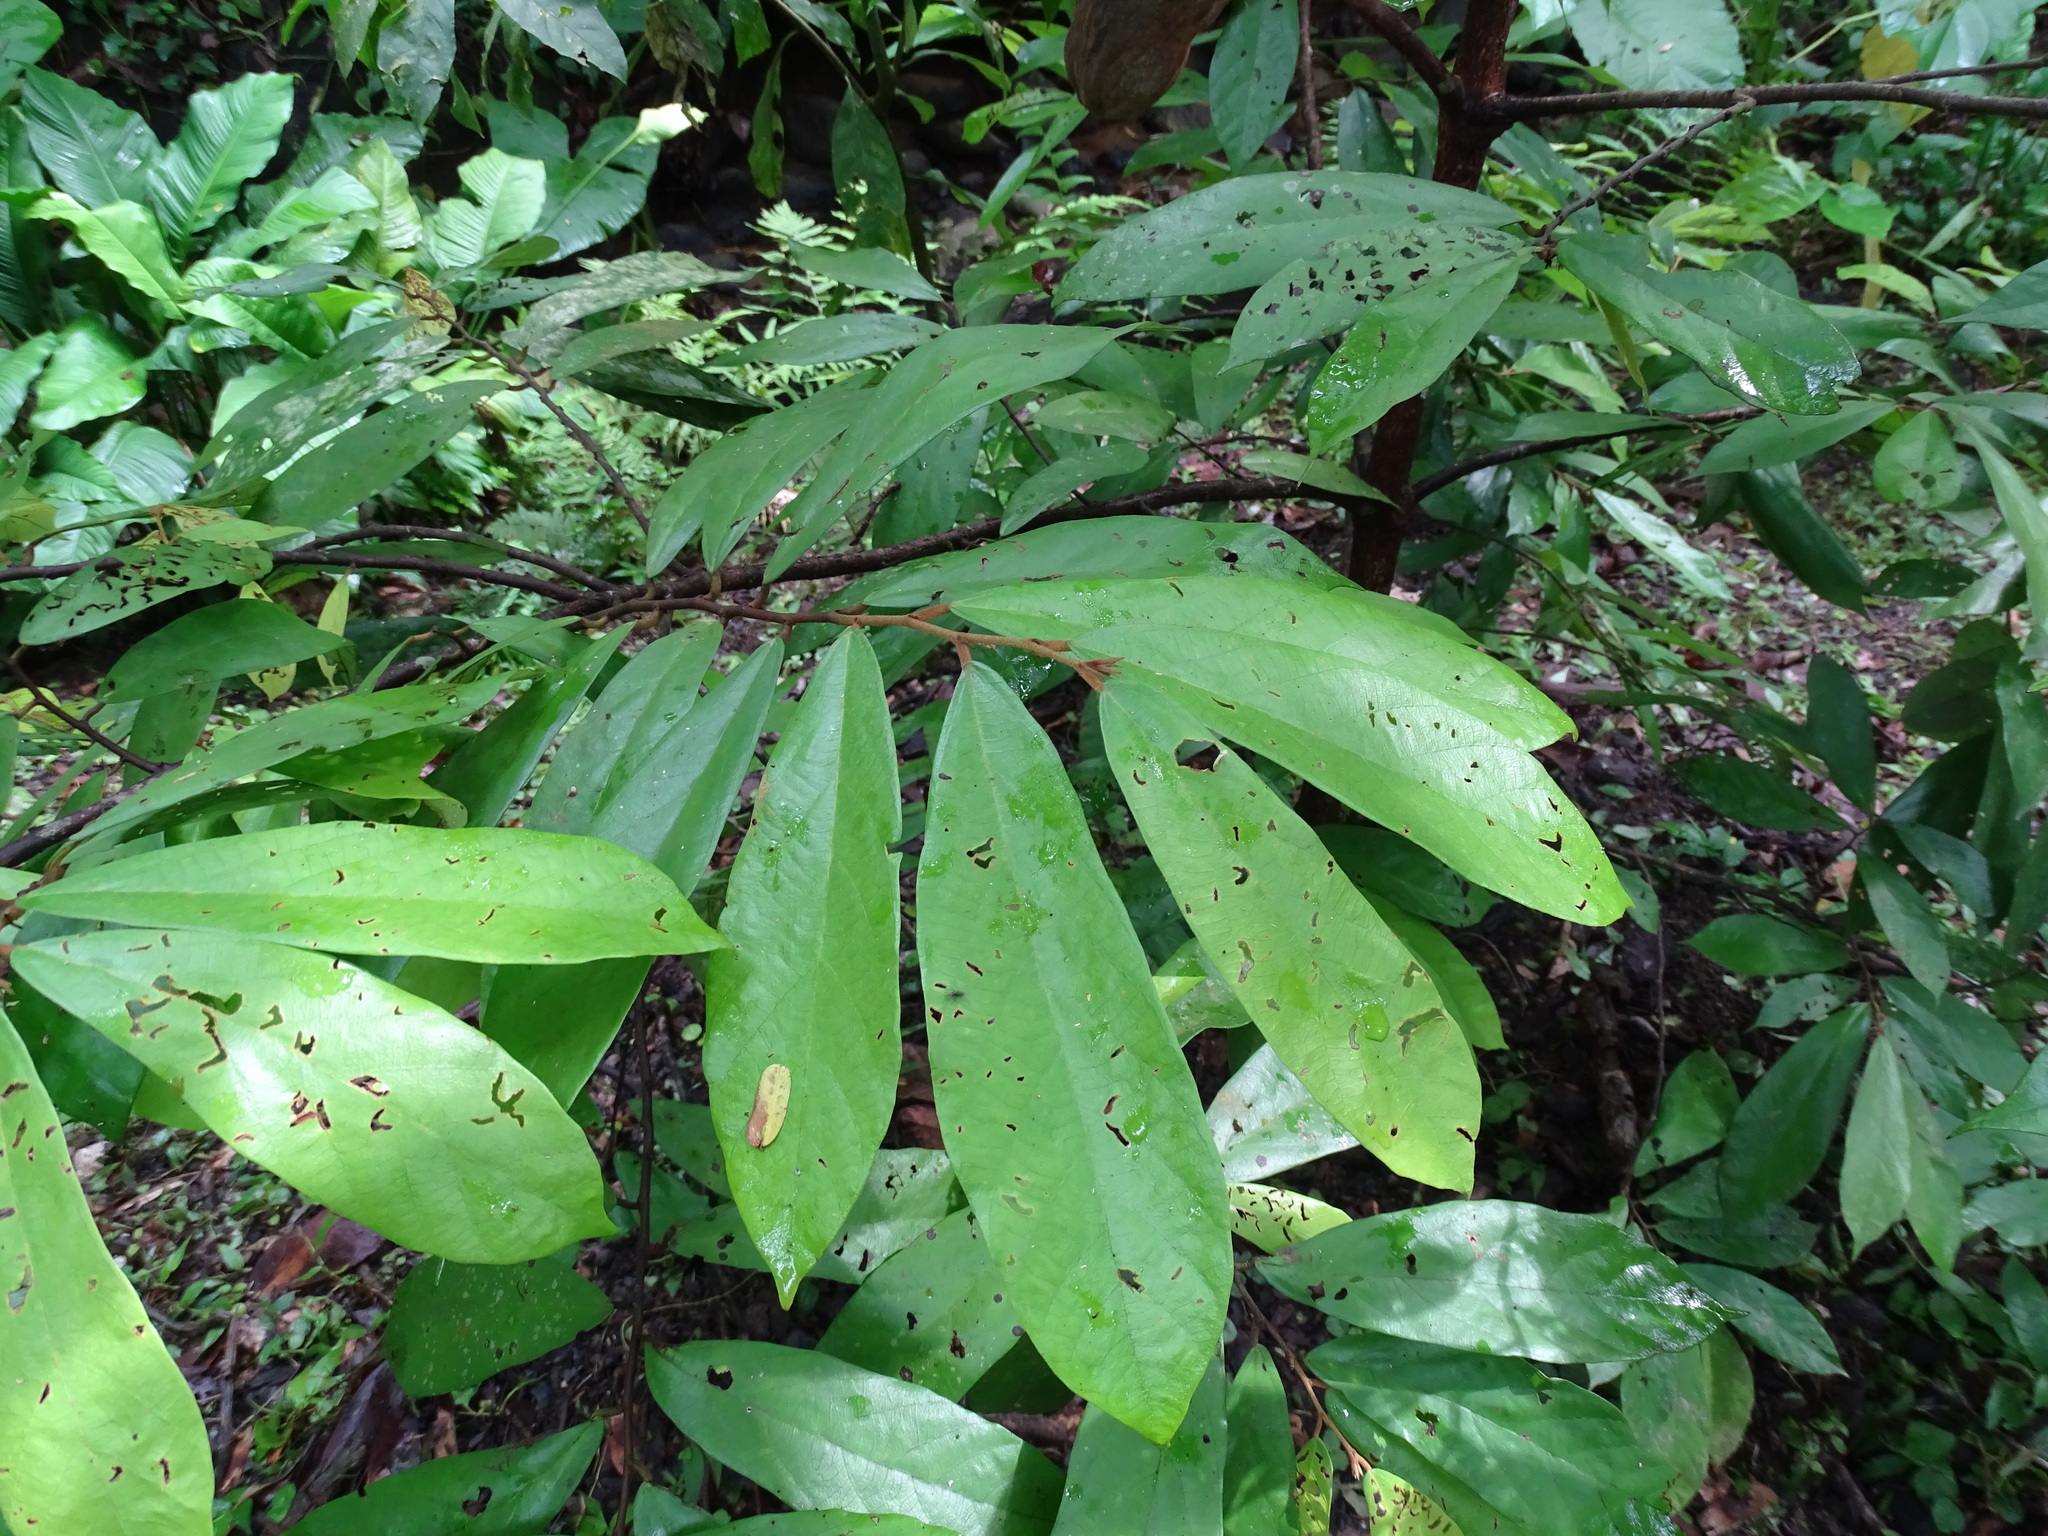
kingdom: Plantae
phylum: Tracheophyta
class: Magnoliopsida
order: Malvales
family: Malvaceae
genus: Theobroma
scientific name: Theobroma angustifolium
